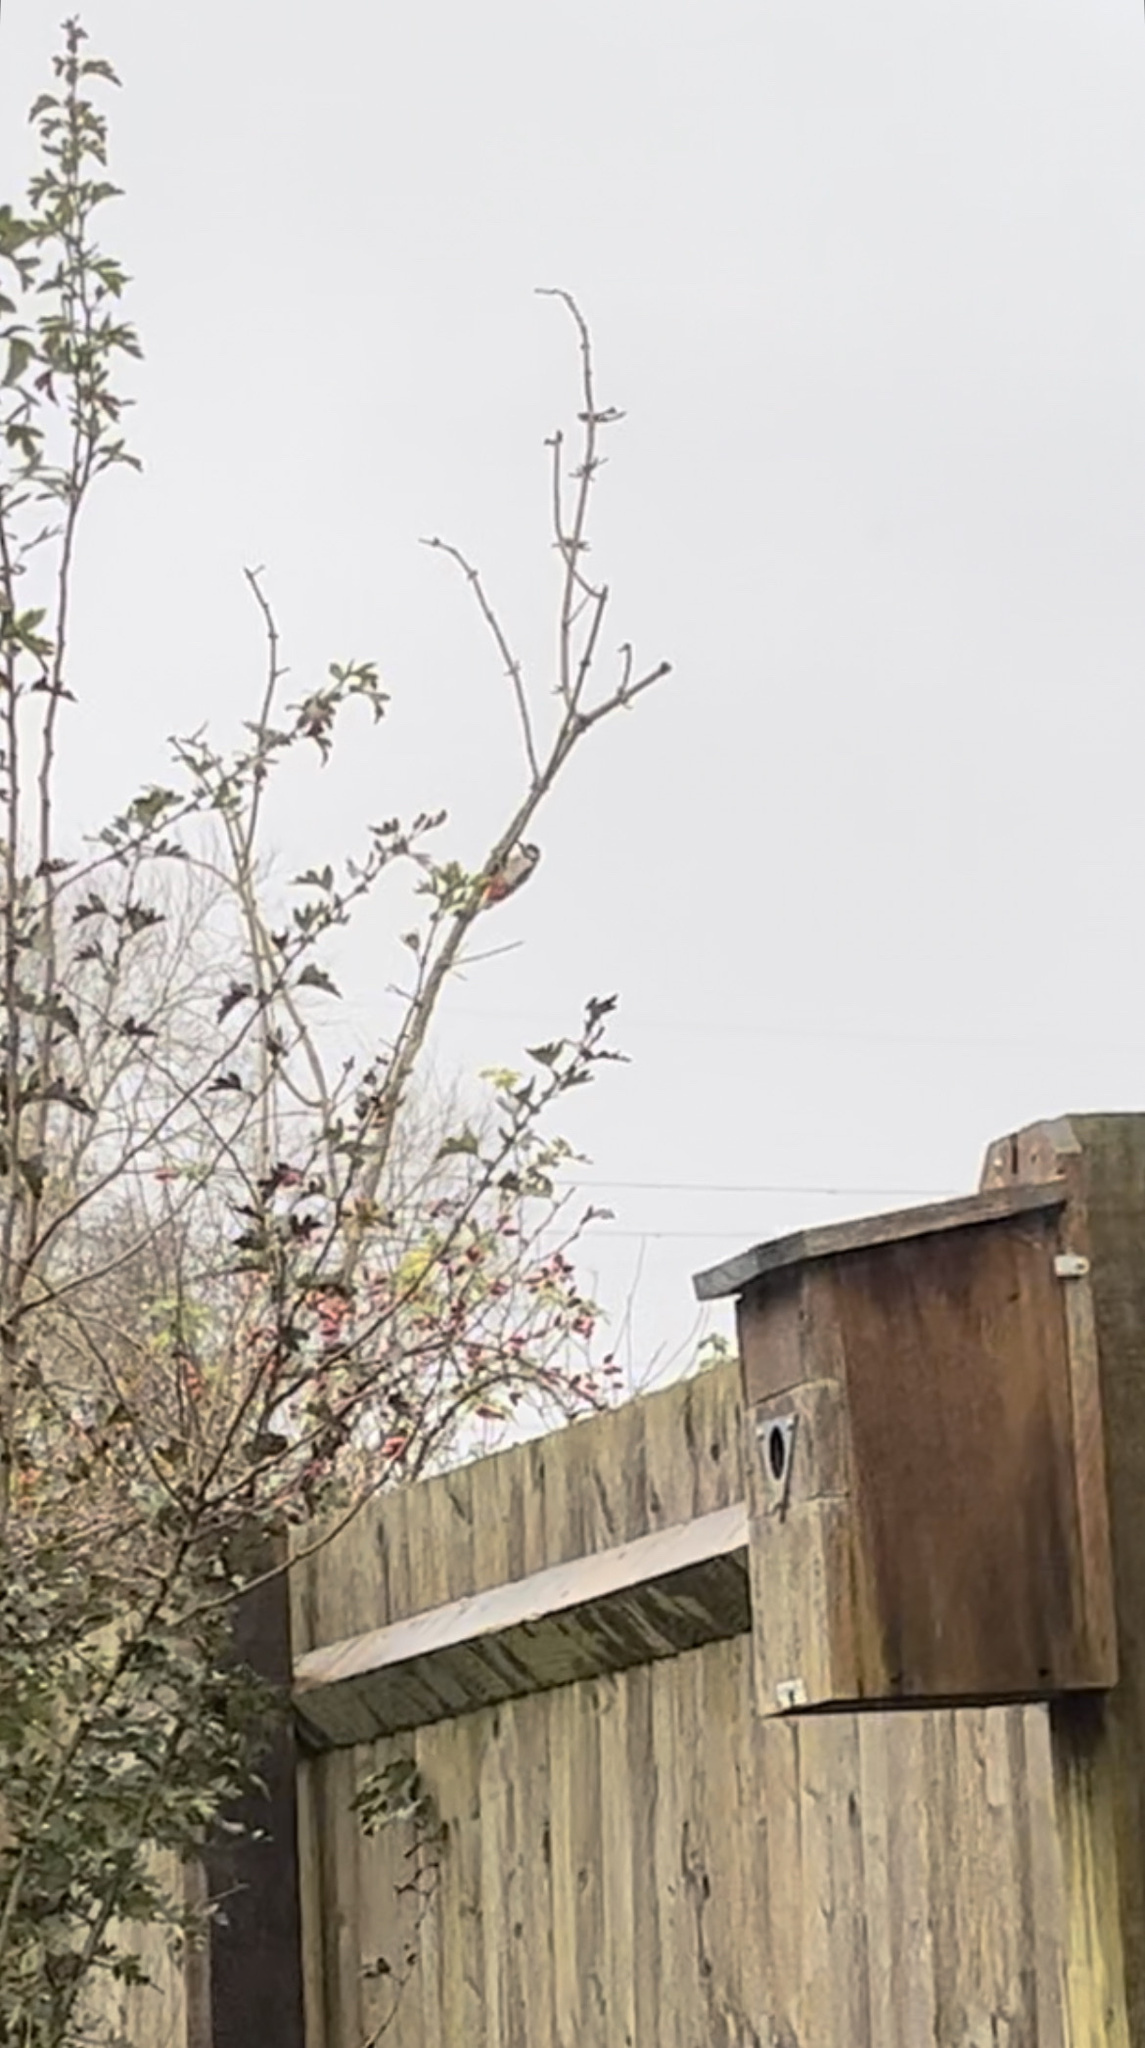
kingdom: Animalia
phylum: Chordata
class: Aves
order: Piciformes
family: Picidae
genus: Dendrocopos
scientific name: Dendrocopos major
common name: Great spotted woodpecker
